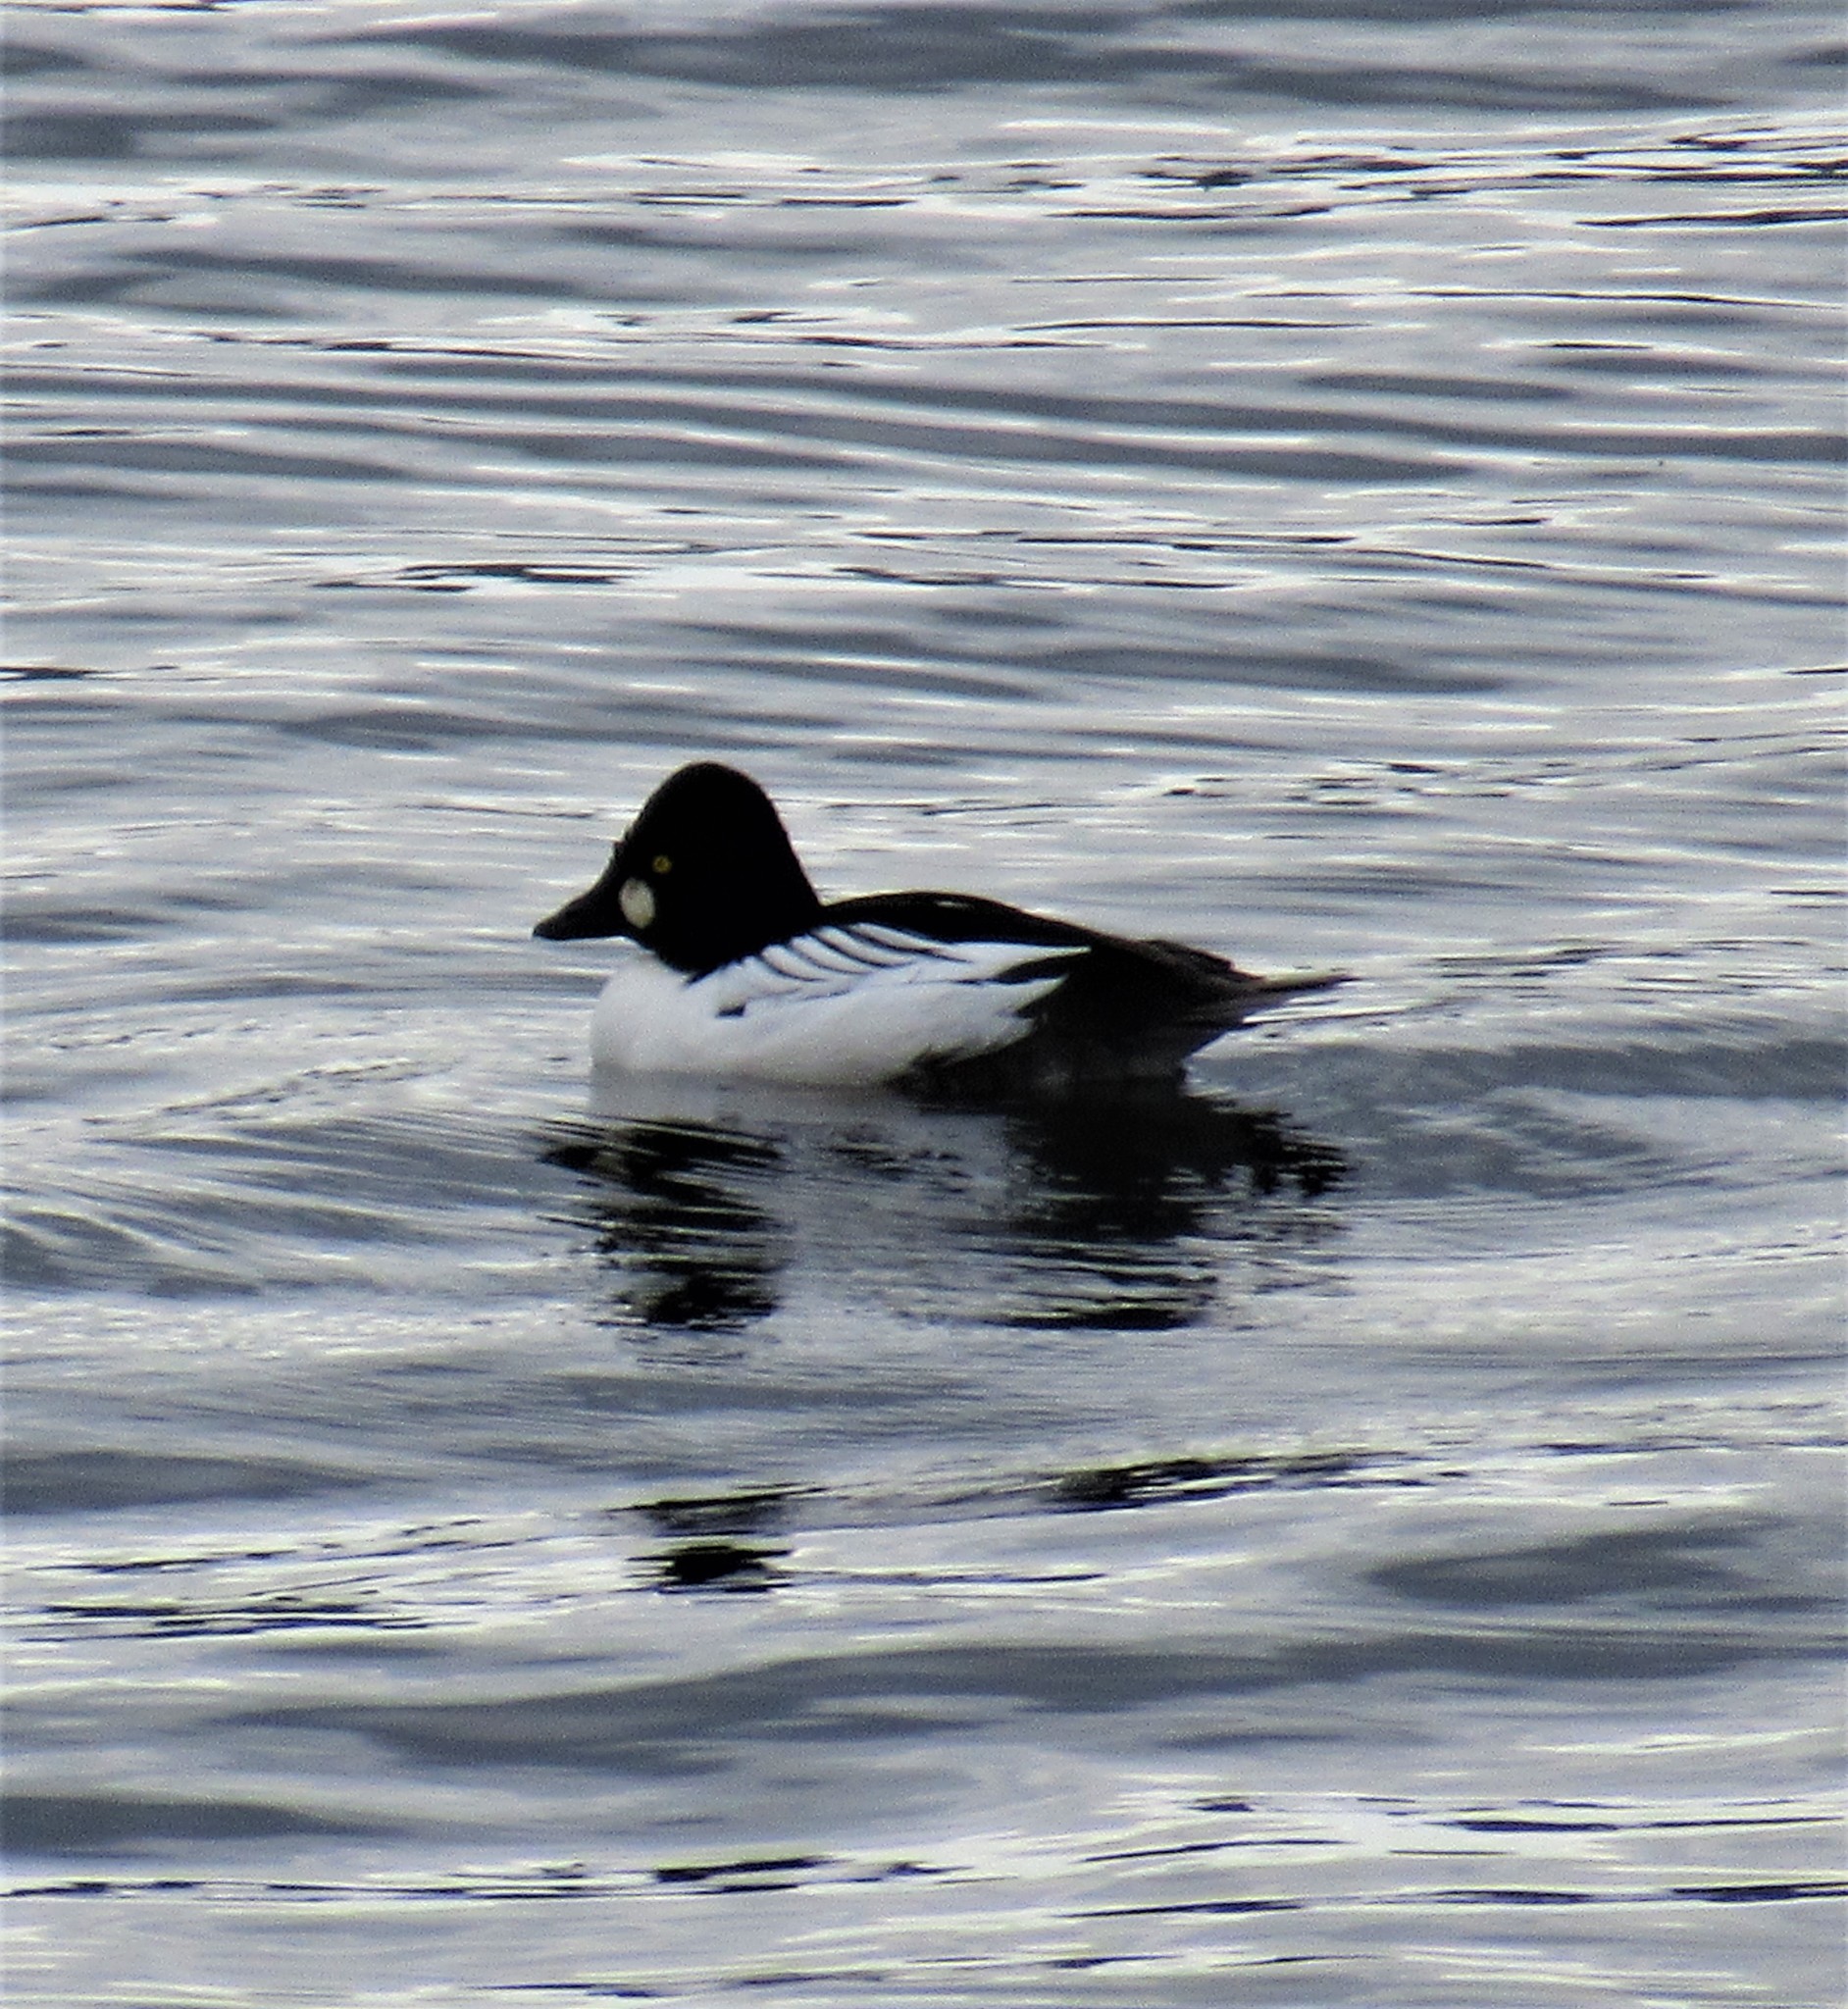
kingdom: Animalia
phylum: Chordata
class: Aves
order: Anseriformes
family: Anatidae
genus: Bucephala
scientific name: Bucephala clangula
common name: Common goldeneye
